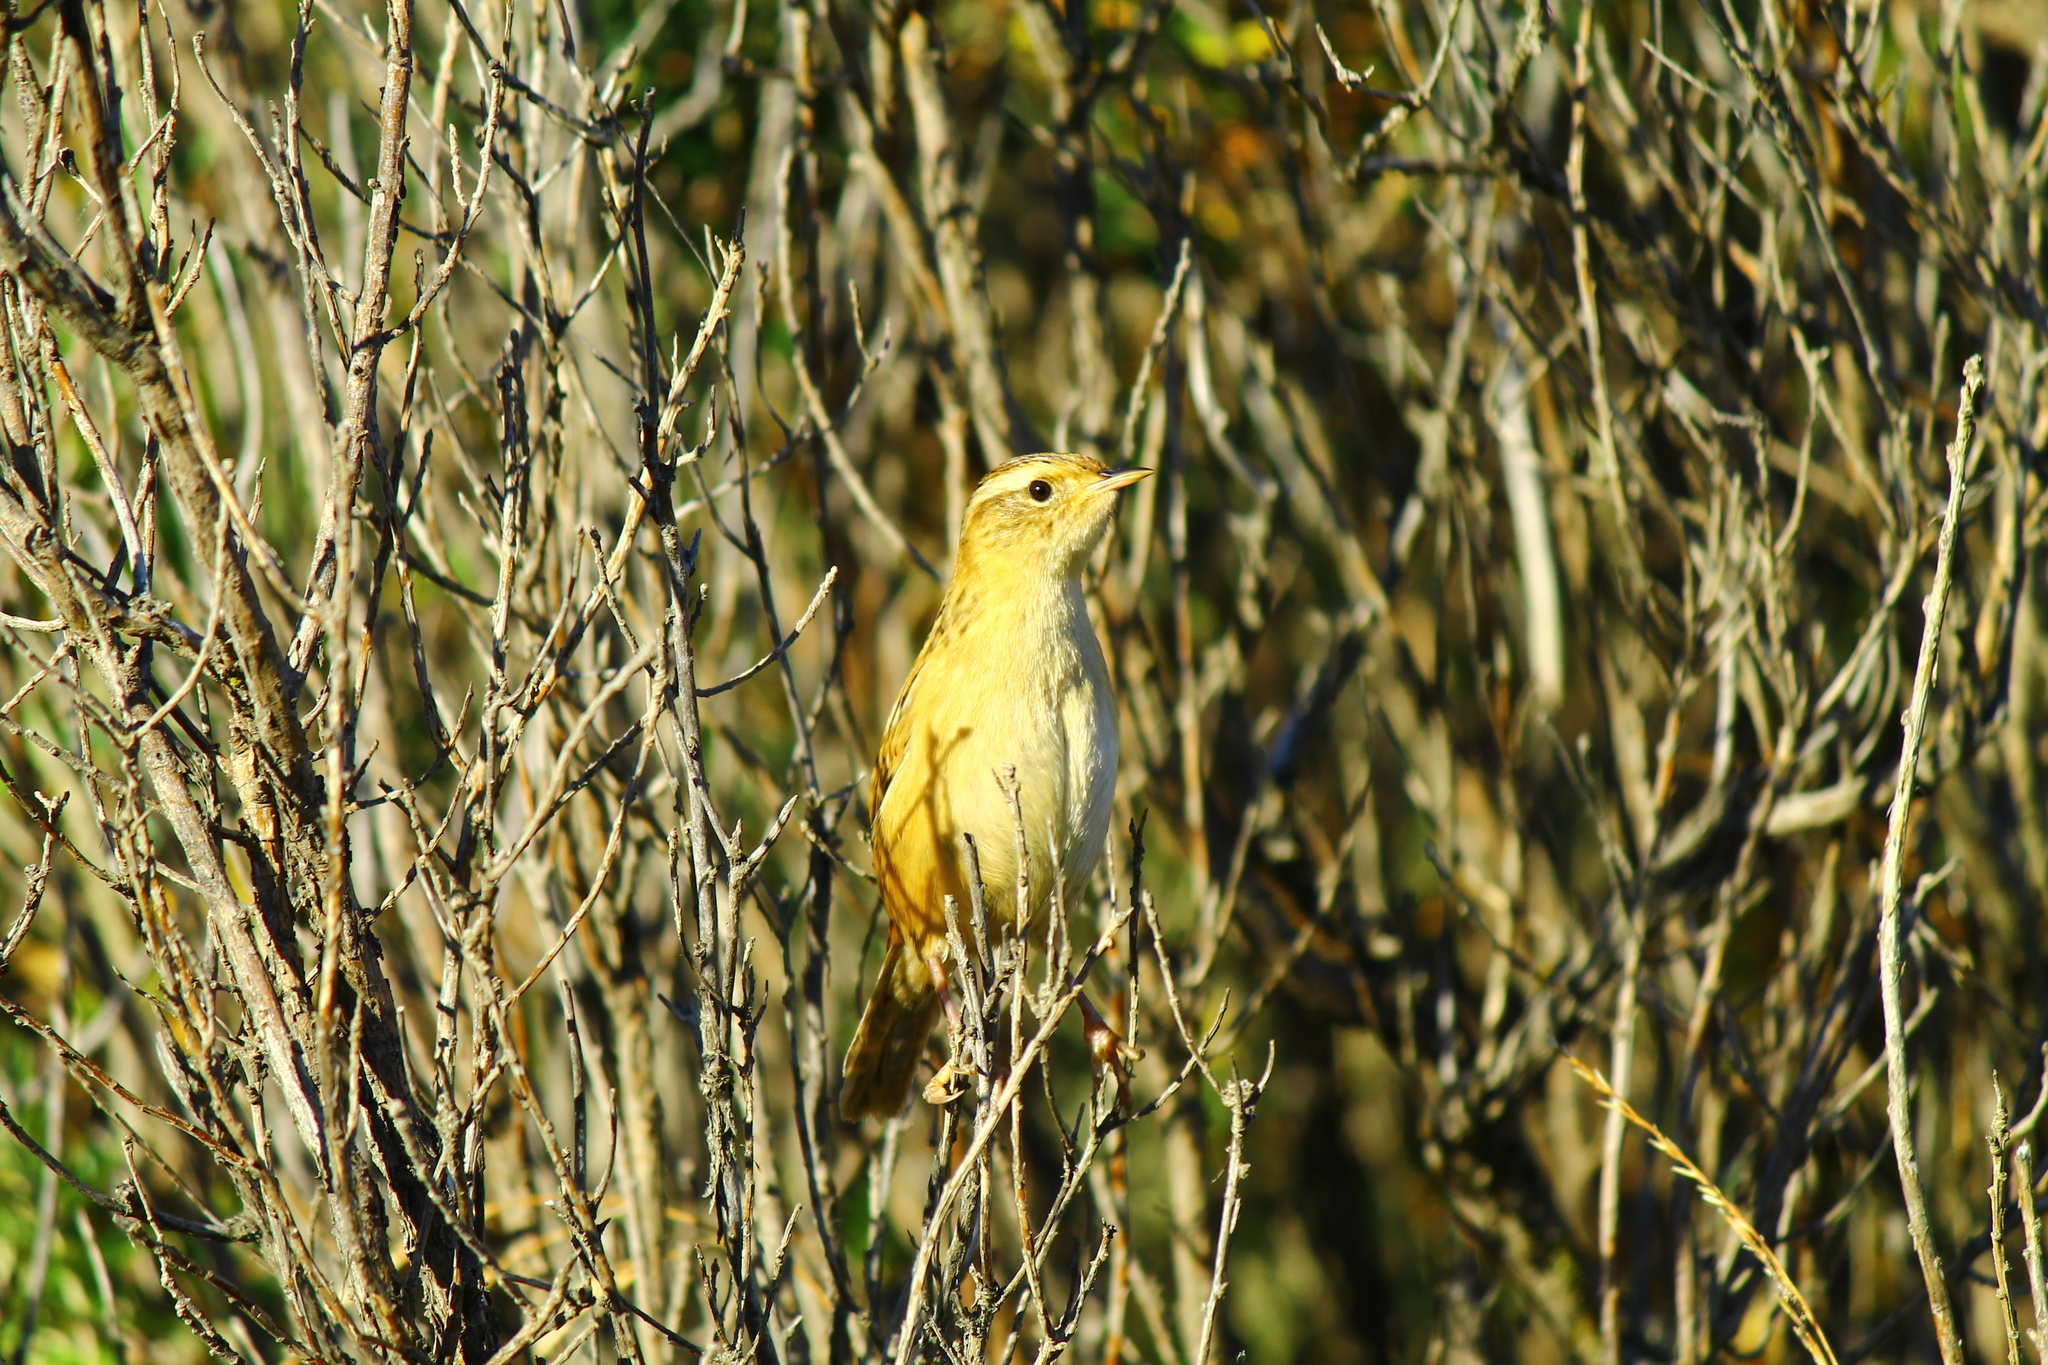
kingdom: Animalia
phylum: Chordata
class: Aves
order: Passeriformes
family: Troglodytidae
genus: Cistothorus
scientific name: Cistothorus platensis
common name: Sedge wren
